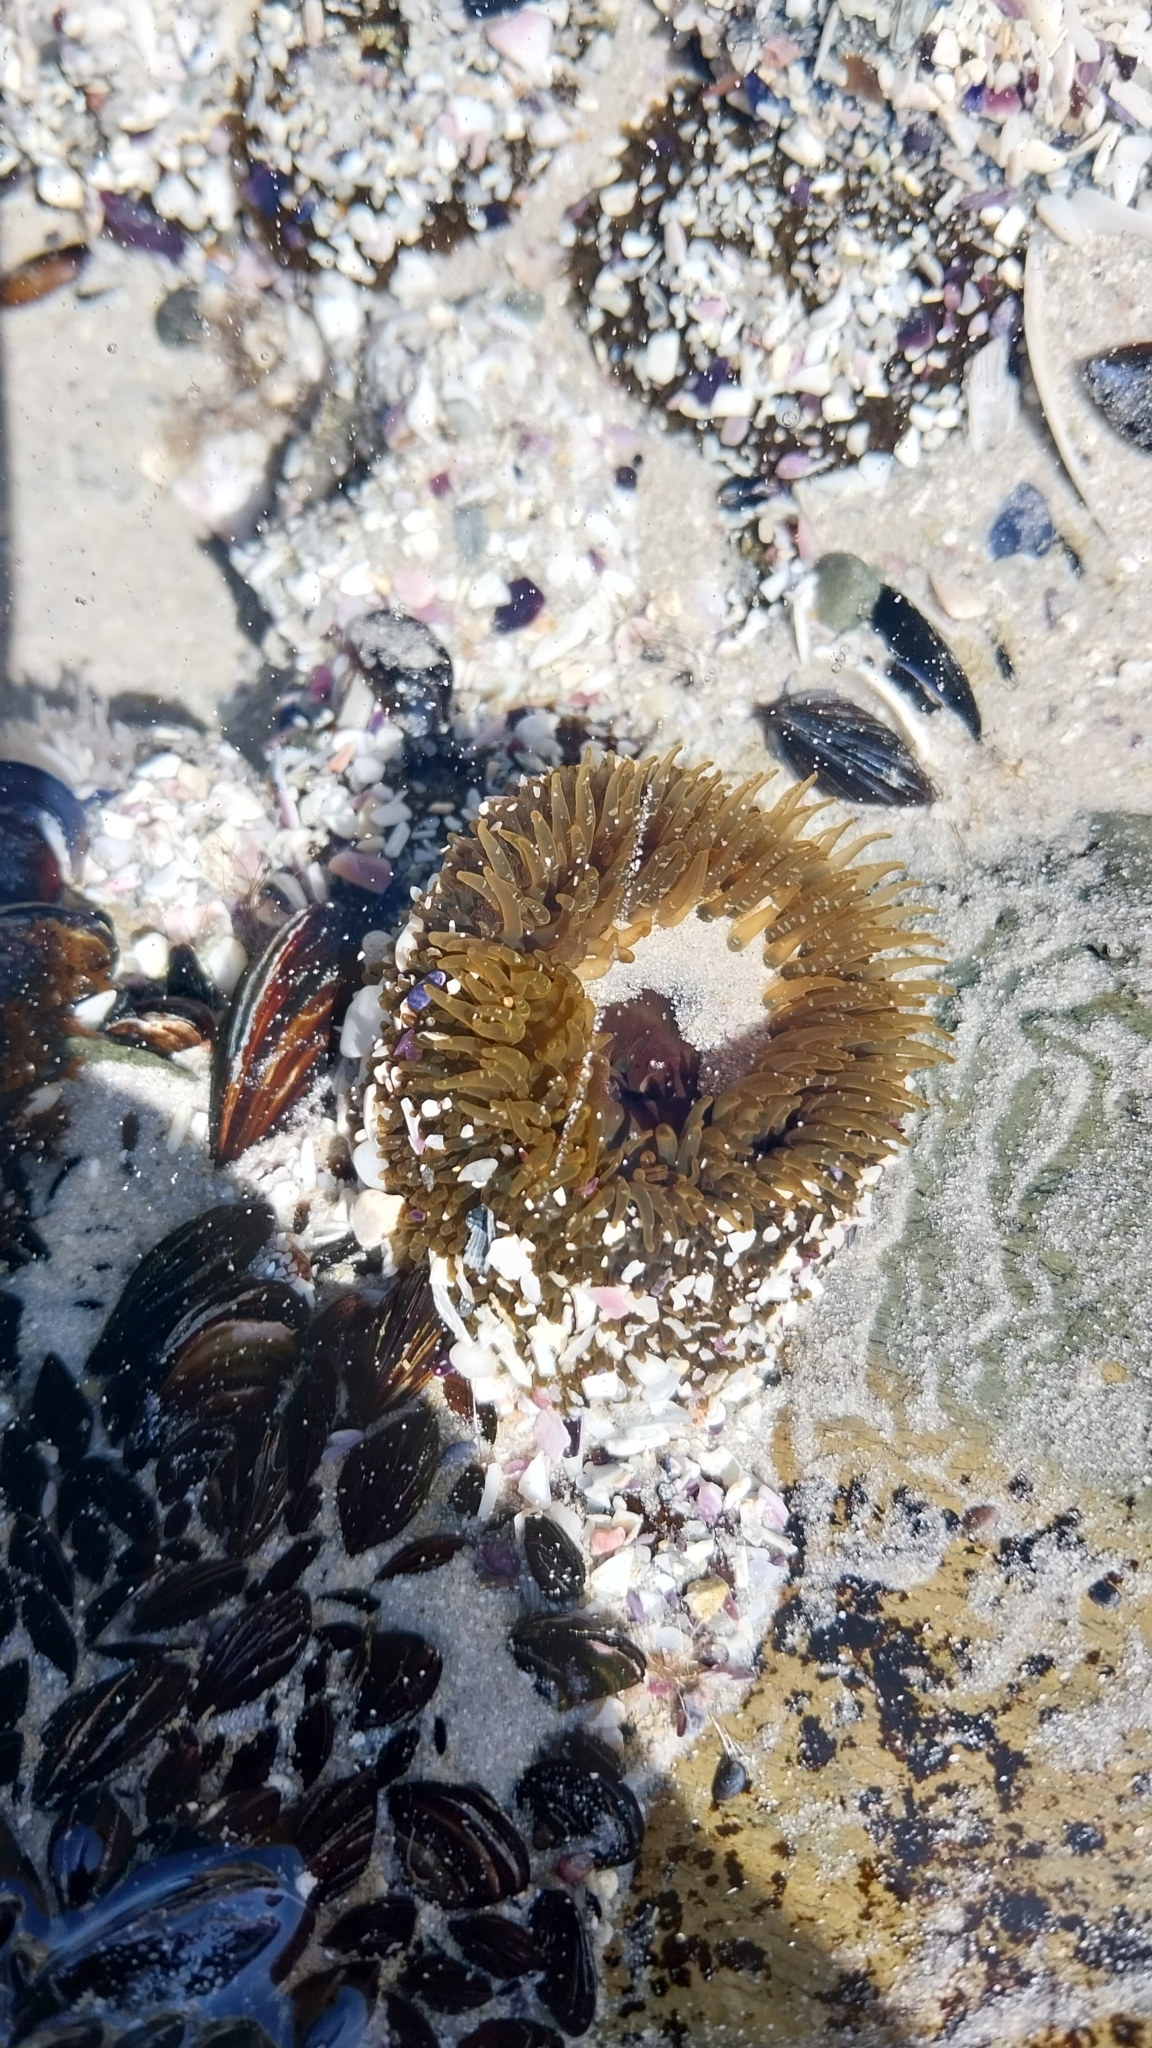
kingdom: Animalia
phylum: Cnidaria
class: Anthozoa
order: Actiniaria
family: Actiniidae
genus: Bunodactis
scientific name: Bunodactis reynaudi
